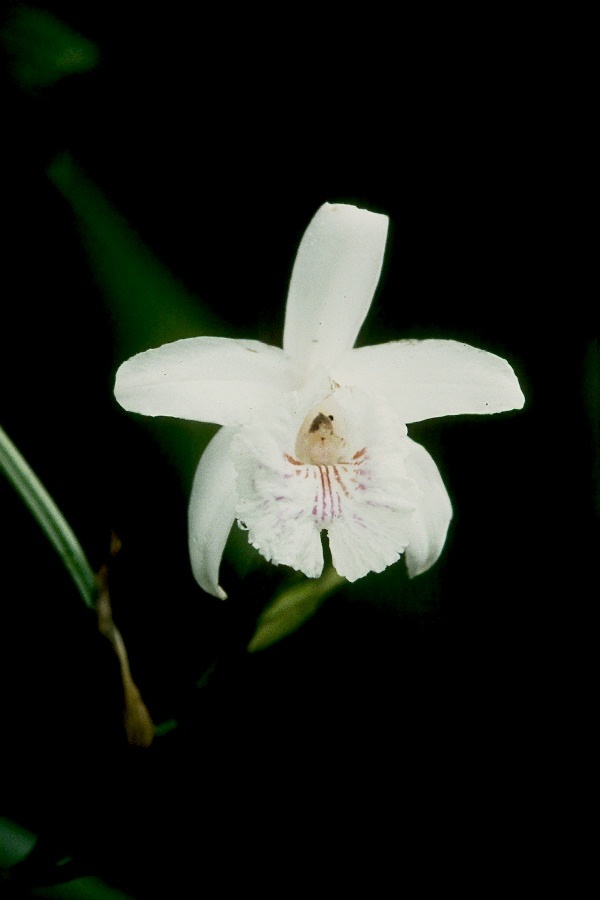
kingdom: Plantae
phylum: Tracheophyta
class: Liliopsida
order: Asparagales
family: Orchidaceae
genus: Sobralia
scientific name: Sobralia pulcherrima
